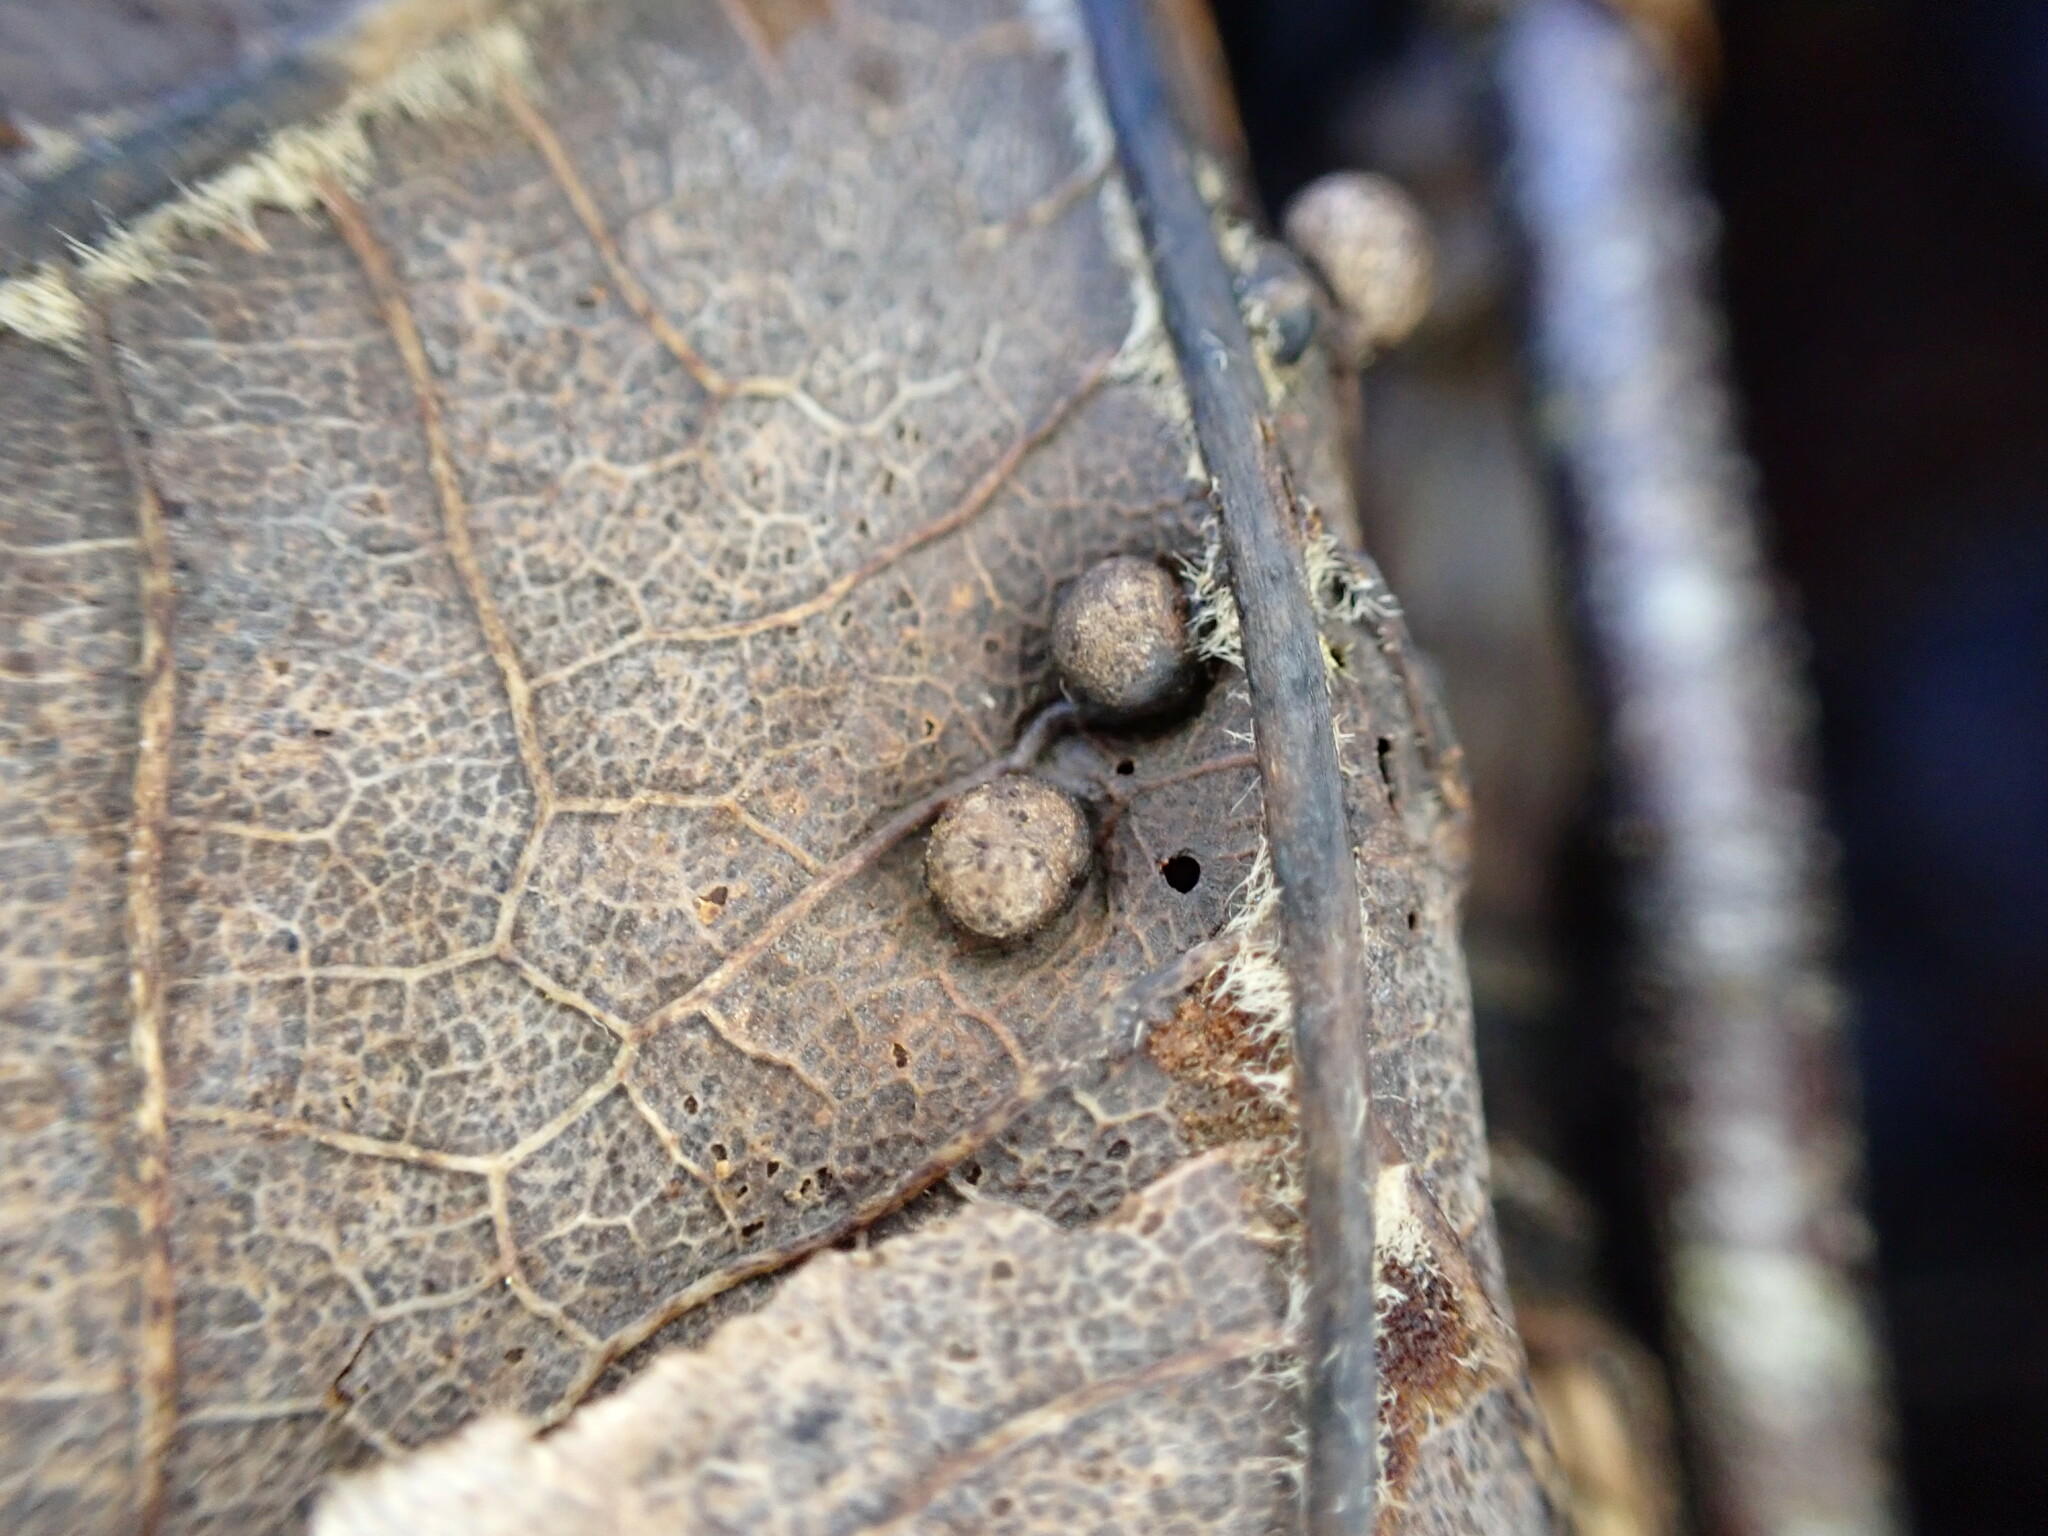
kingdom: Animalia
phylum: Arthropoda
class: Insecta
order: Hymenoptera
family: Cynipidae
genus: Pediaspis
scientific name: Pediaspis aceris
